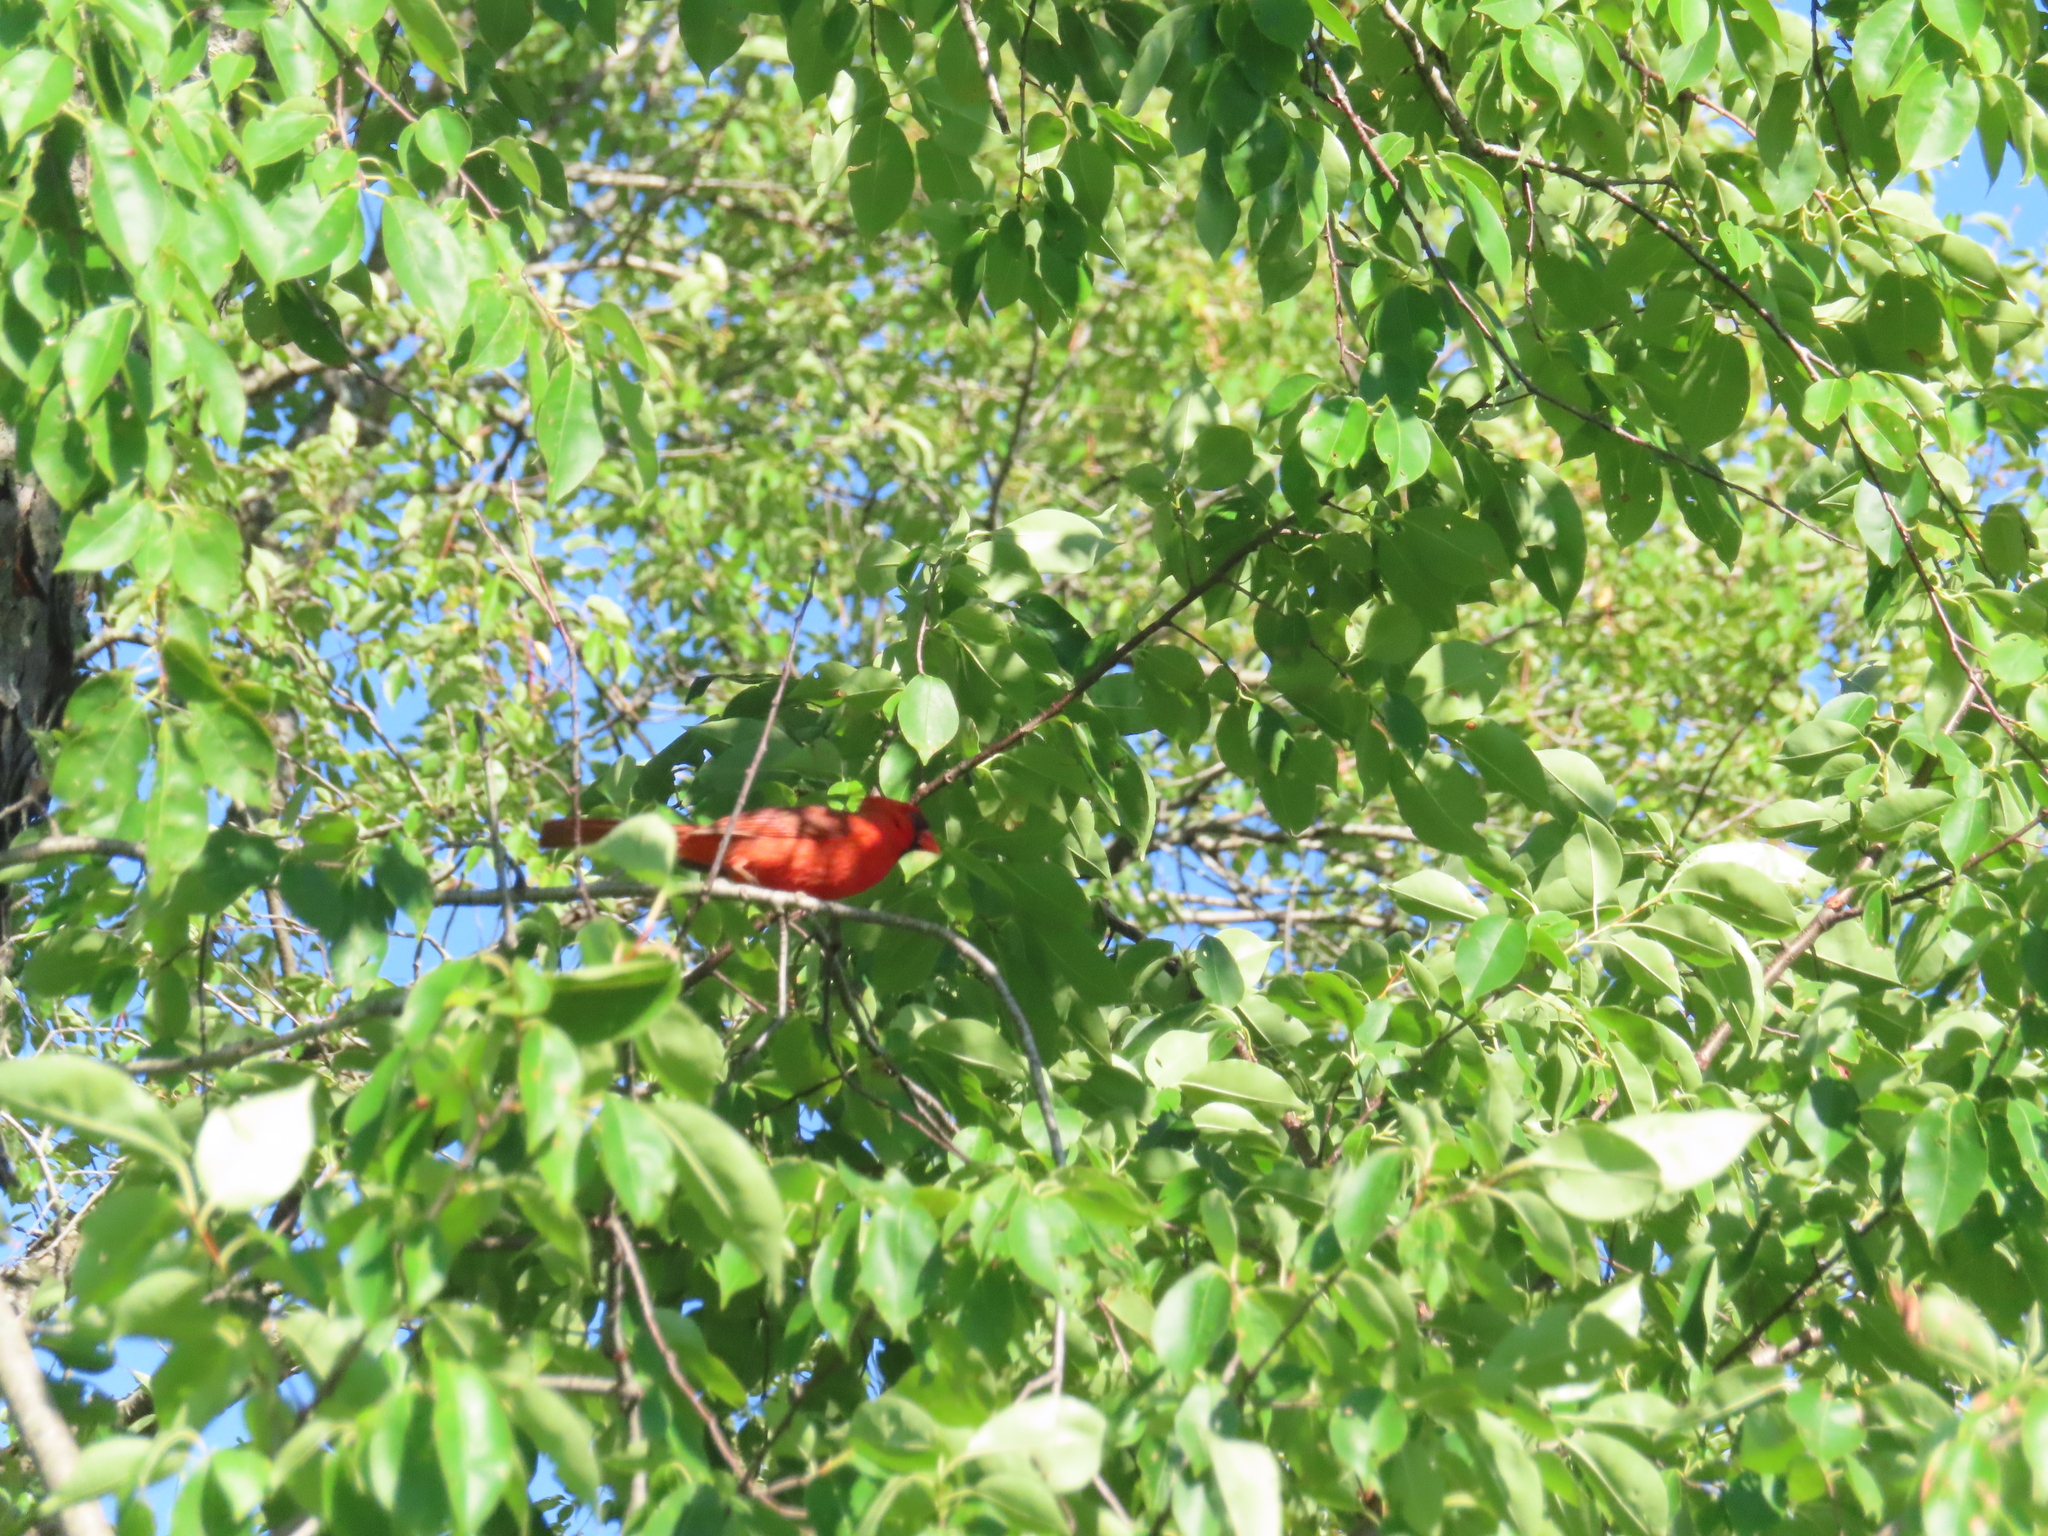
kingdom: Animalia
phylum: Chordata
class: Aves
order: Passeriformes
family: Cardinalidae
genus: Cardinalis
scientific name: Cardinalis cardinalis
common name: Northern cardinal
